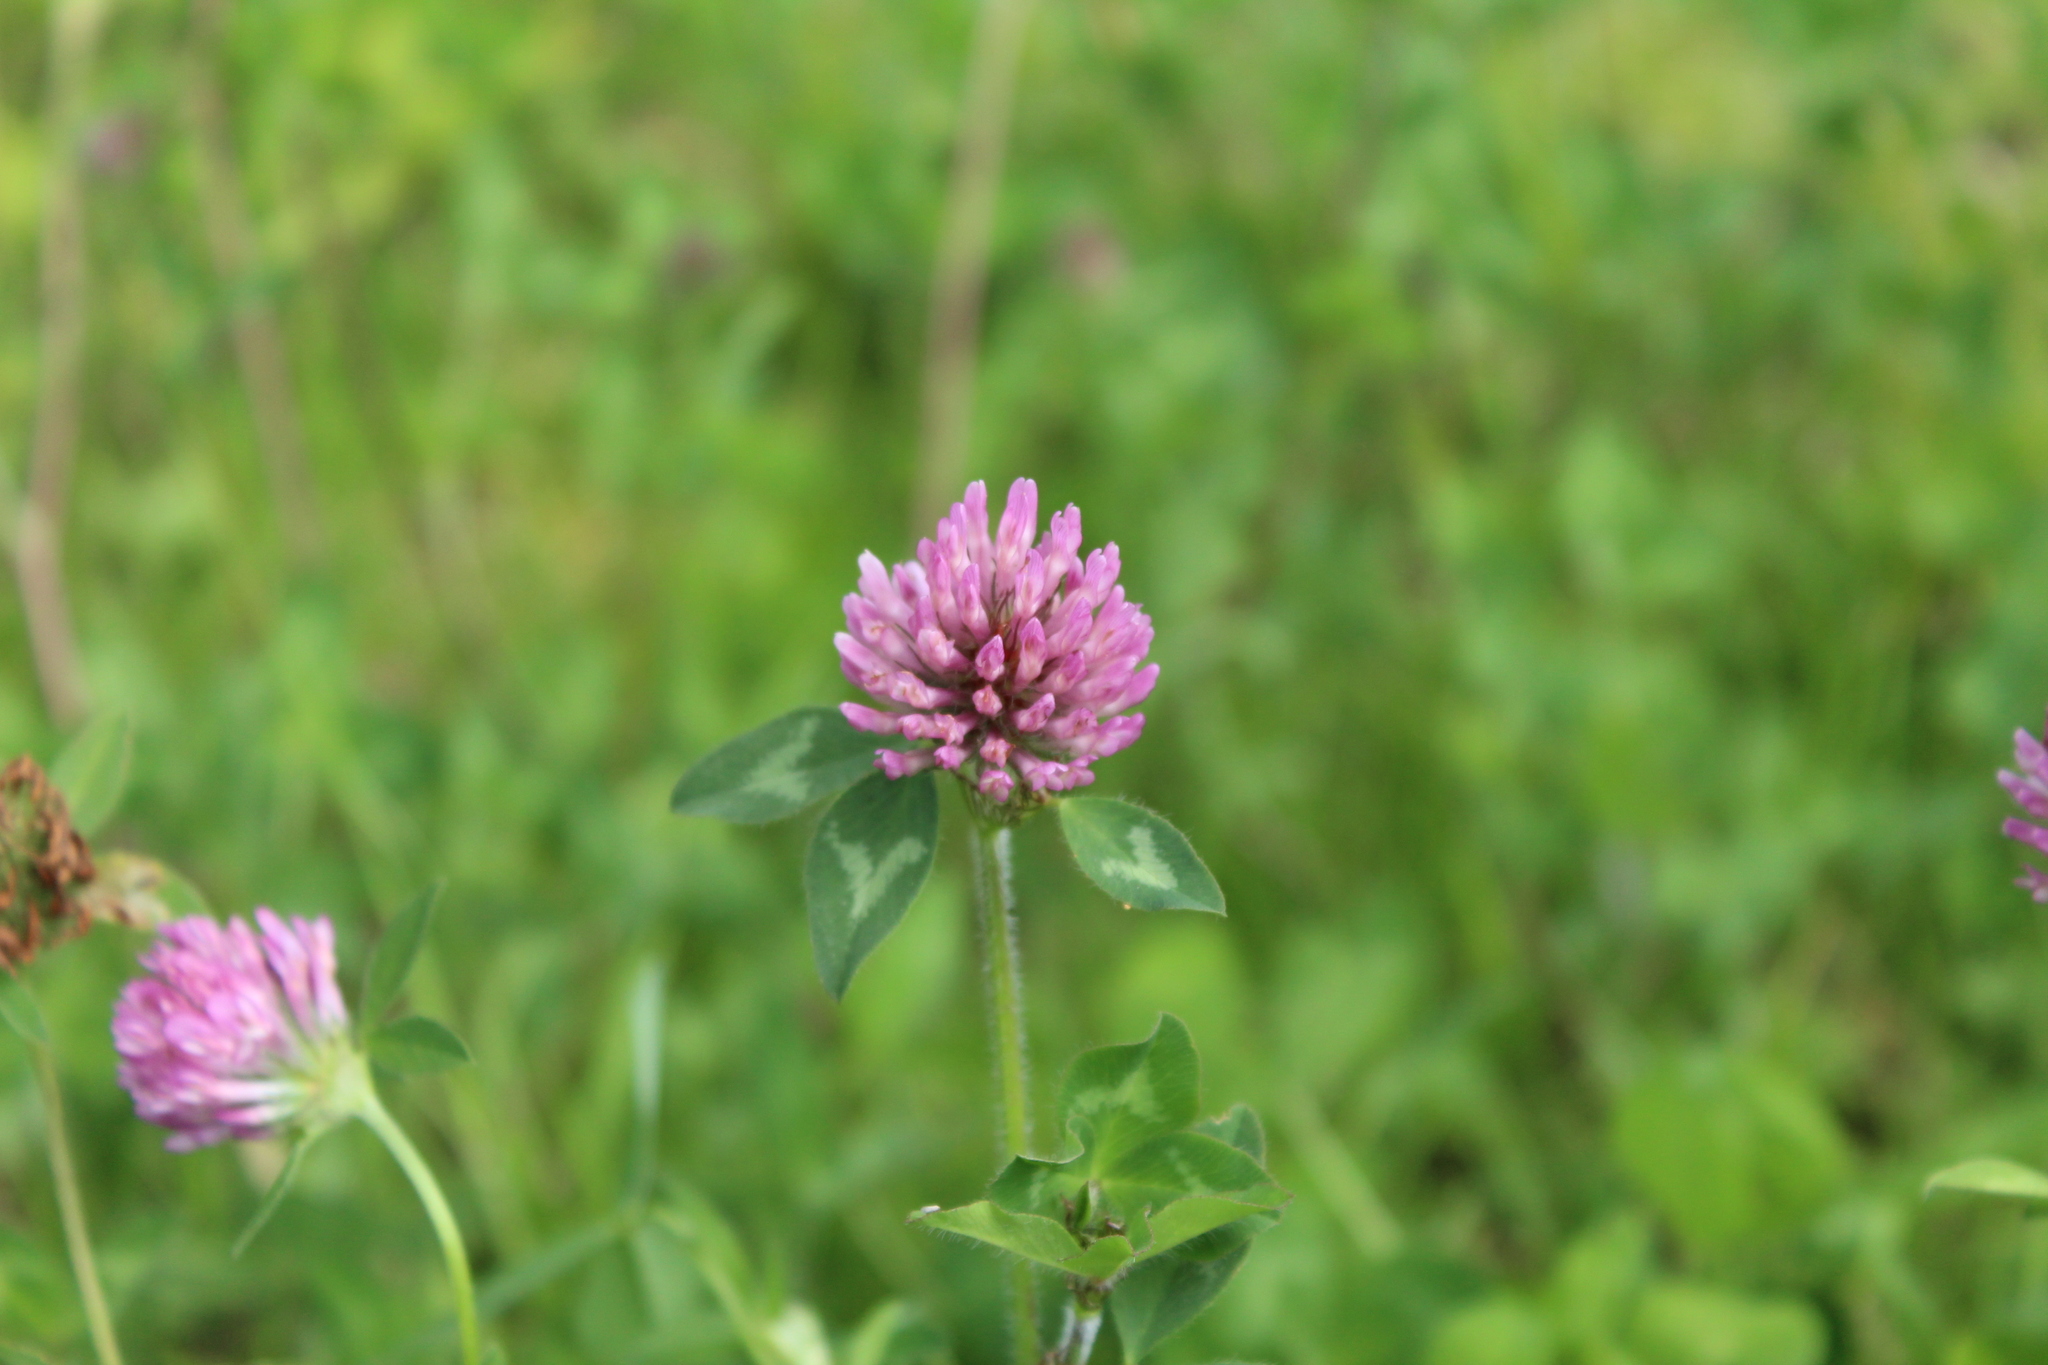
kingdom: Plantae
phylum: Tracheophyta
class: Magnoliopsida
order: Fabales
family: Fabaceae
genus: Trifolium
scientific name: Trifolium pratense
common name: Red clover
